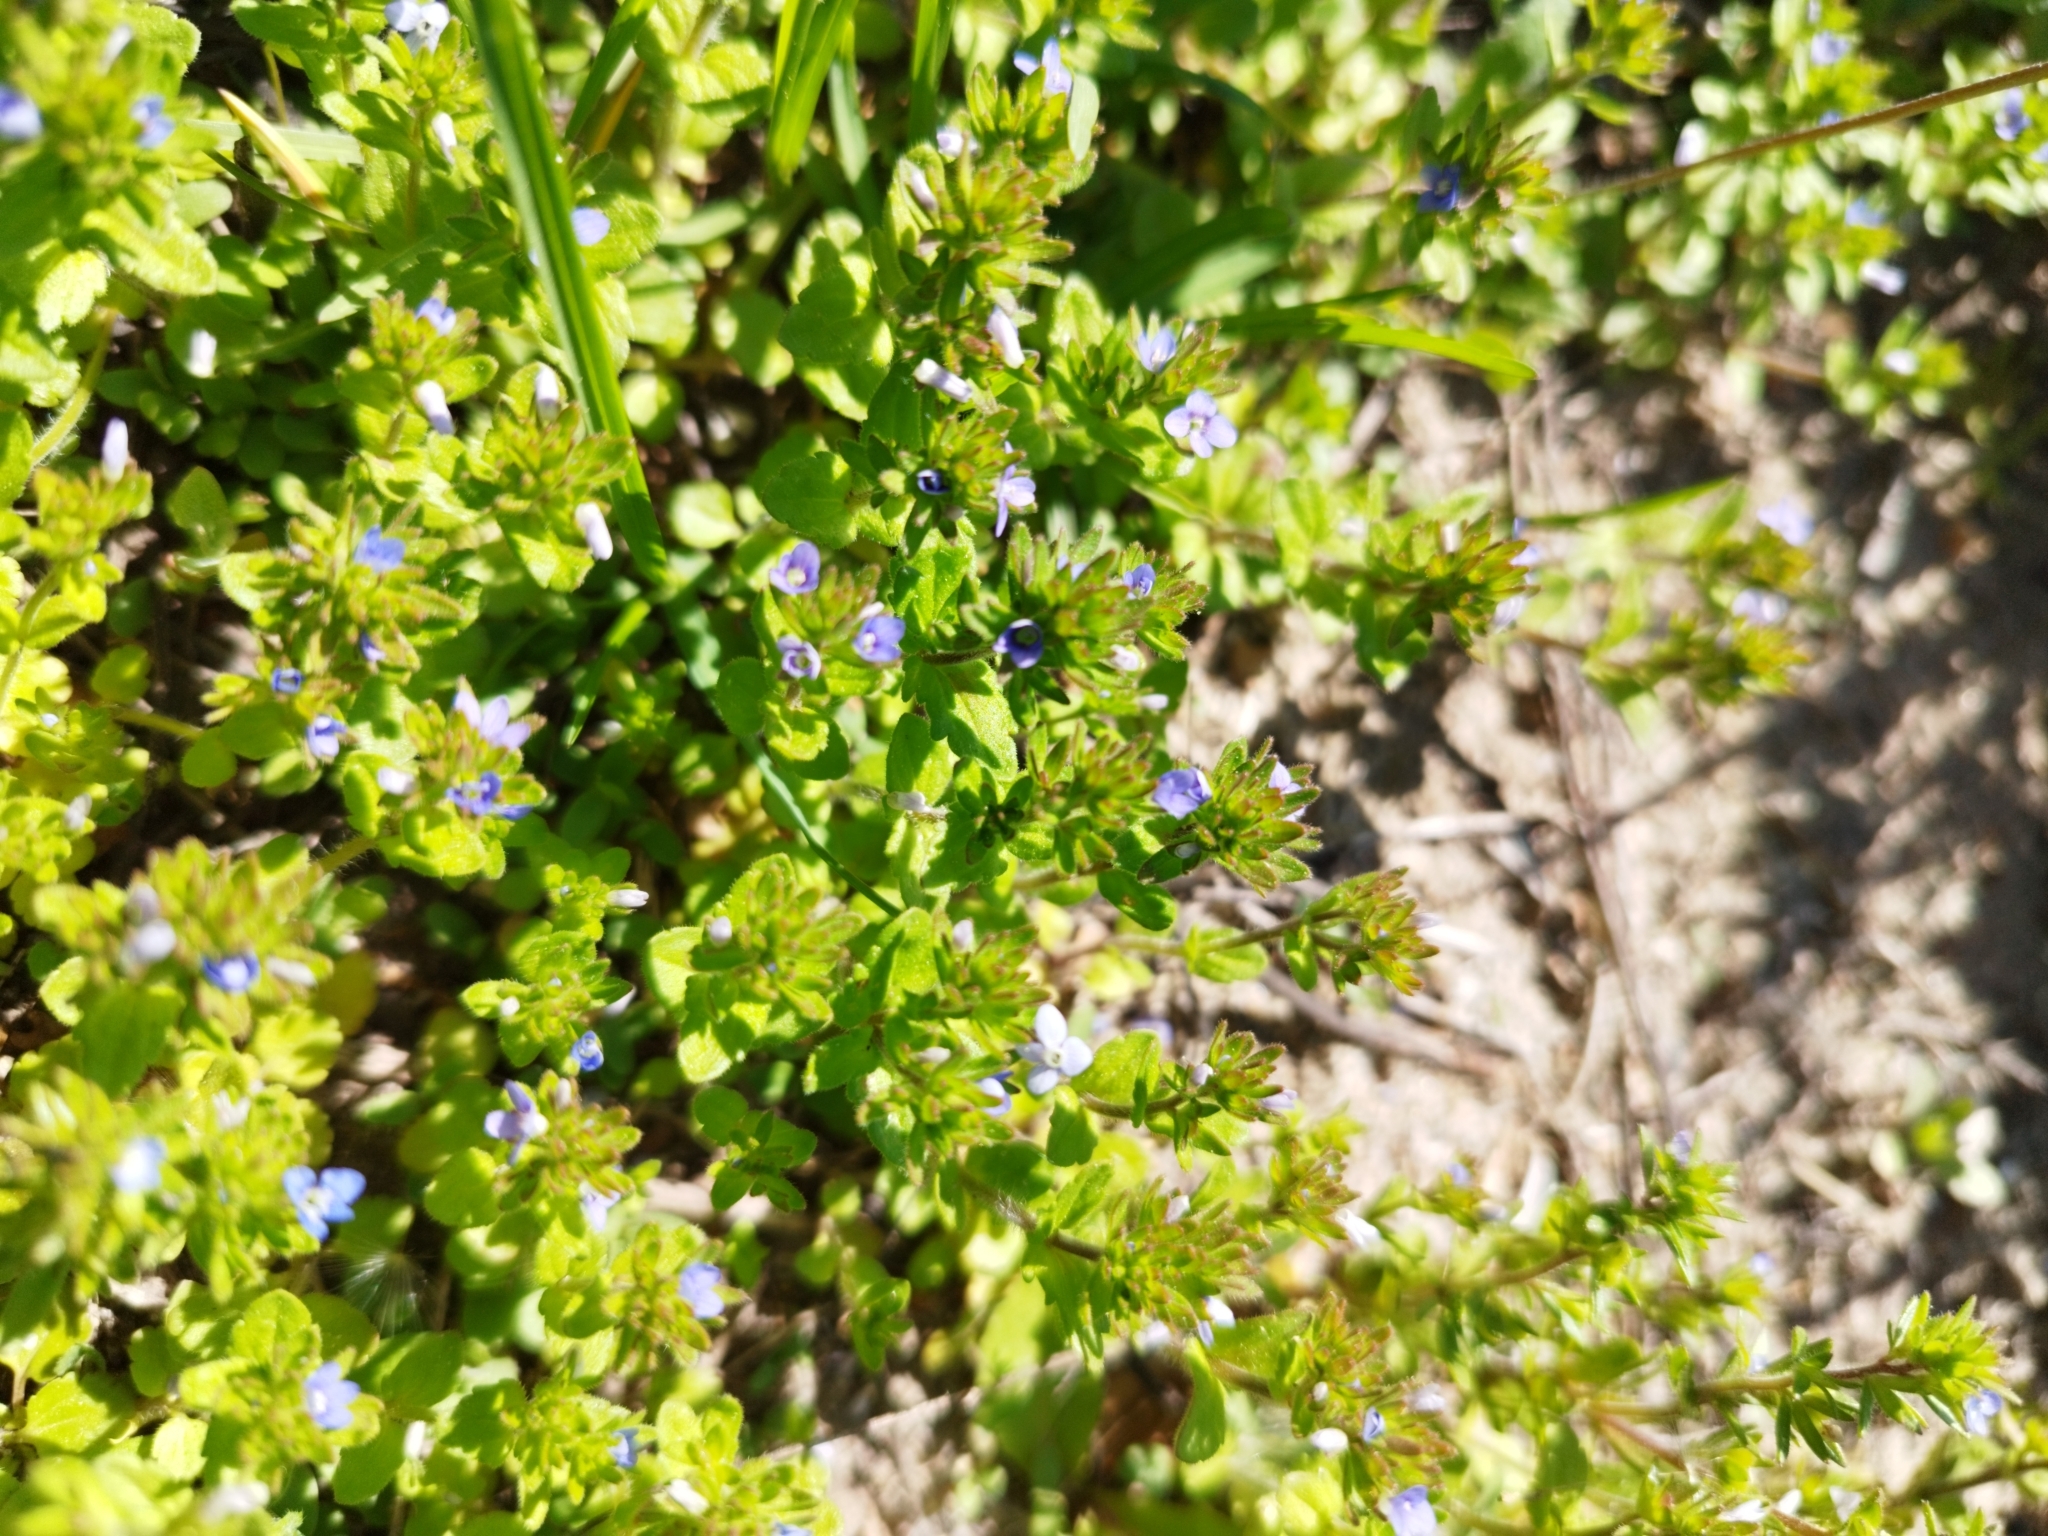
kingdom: Plantae
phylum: Tracheophyta
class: Magnoliopsida
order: Lamiales
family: Plantaginaceae
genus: Veronica
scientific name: Veronica arvensis
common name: Corn speedwell
